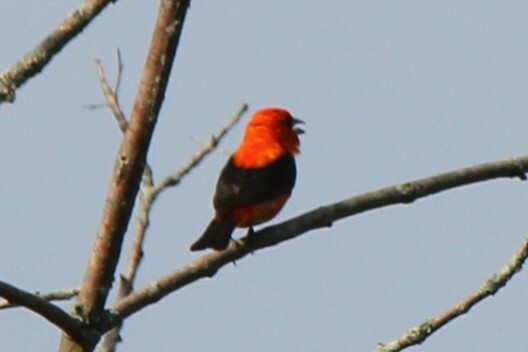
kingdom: Animalia
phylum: Chordata
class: Aves
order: Passeriformes
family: Cardinalidae
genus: Piranga
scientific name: Piranga olivacea
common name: Scarlet tanager
